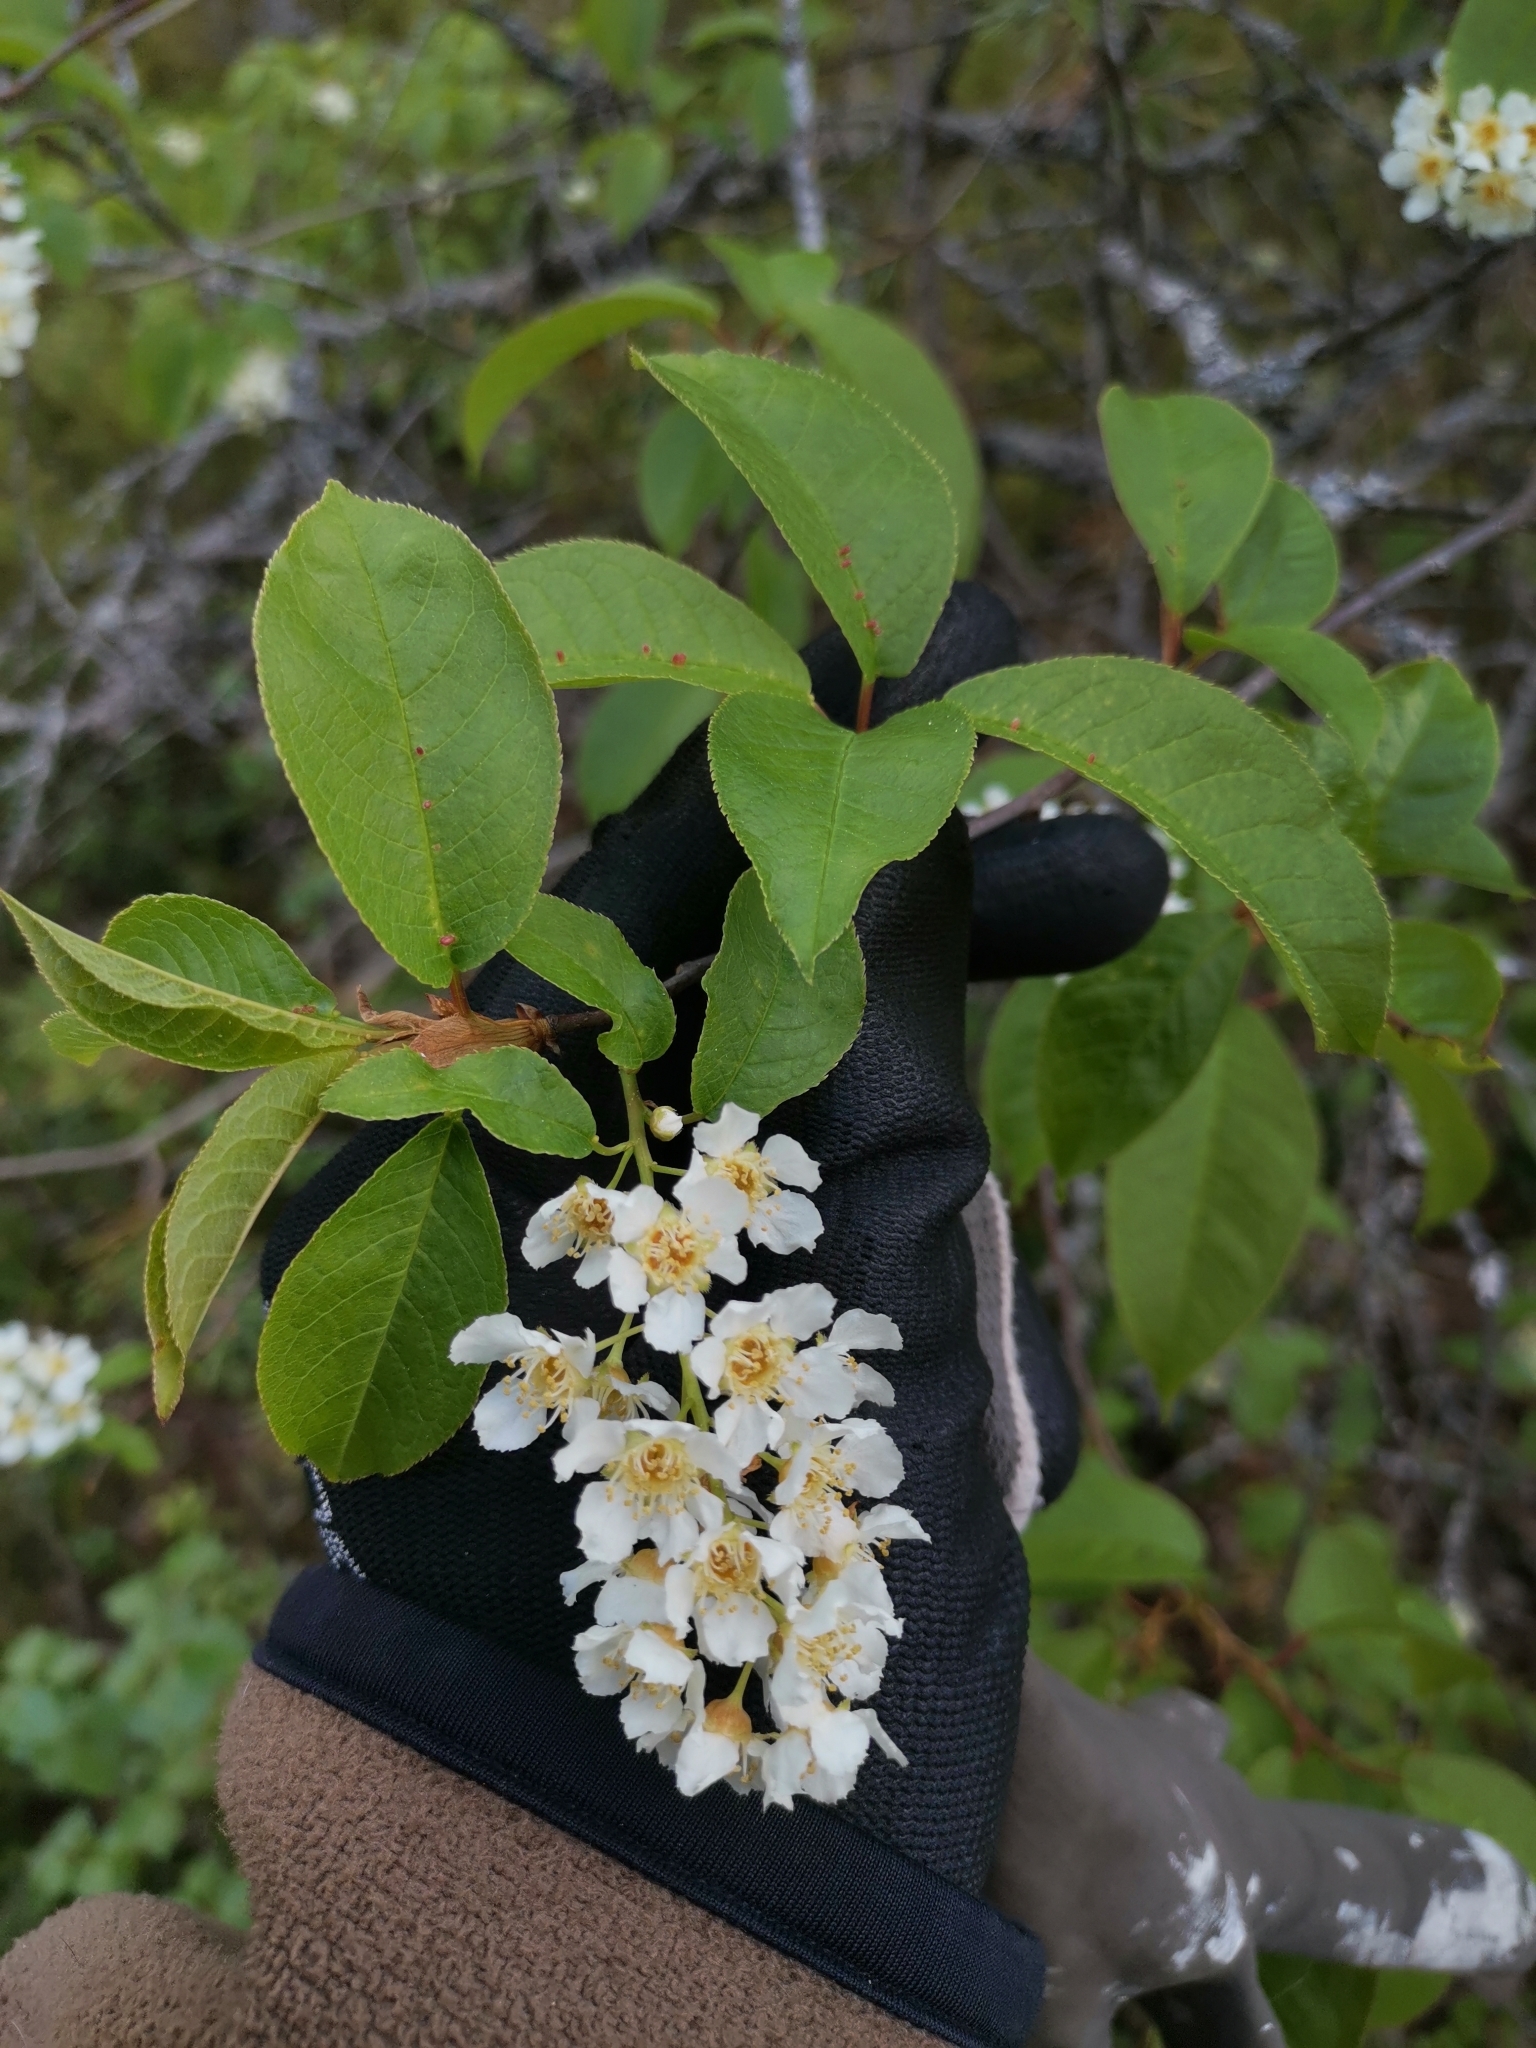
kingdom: Plantae
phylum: Tracheophyta
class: Magnoliopsida
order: Rosales
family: Rosaceae
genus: Prunus
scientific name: Prunus padus
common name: Bird cherry
